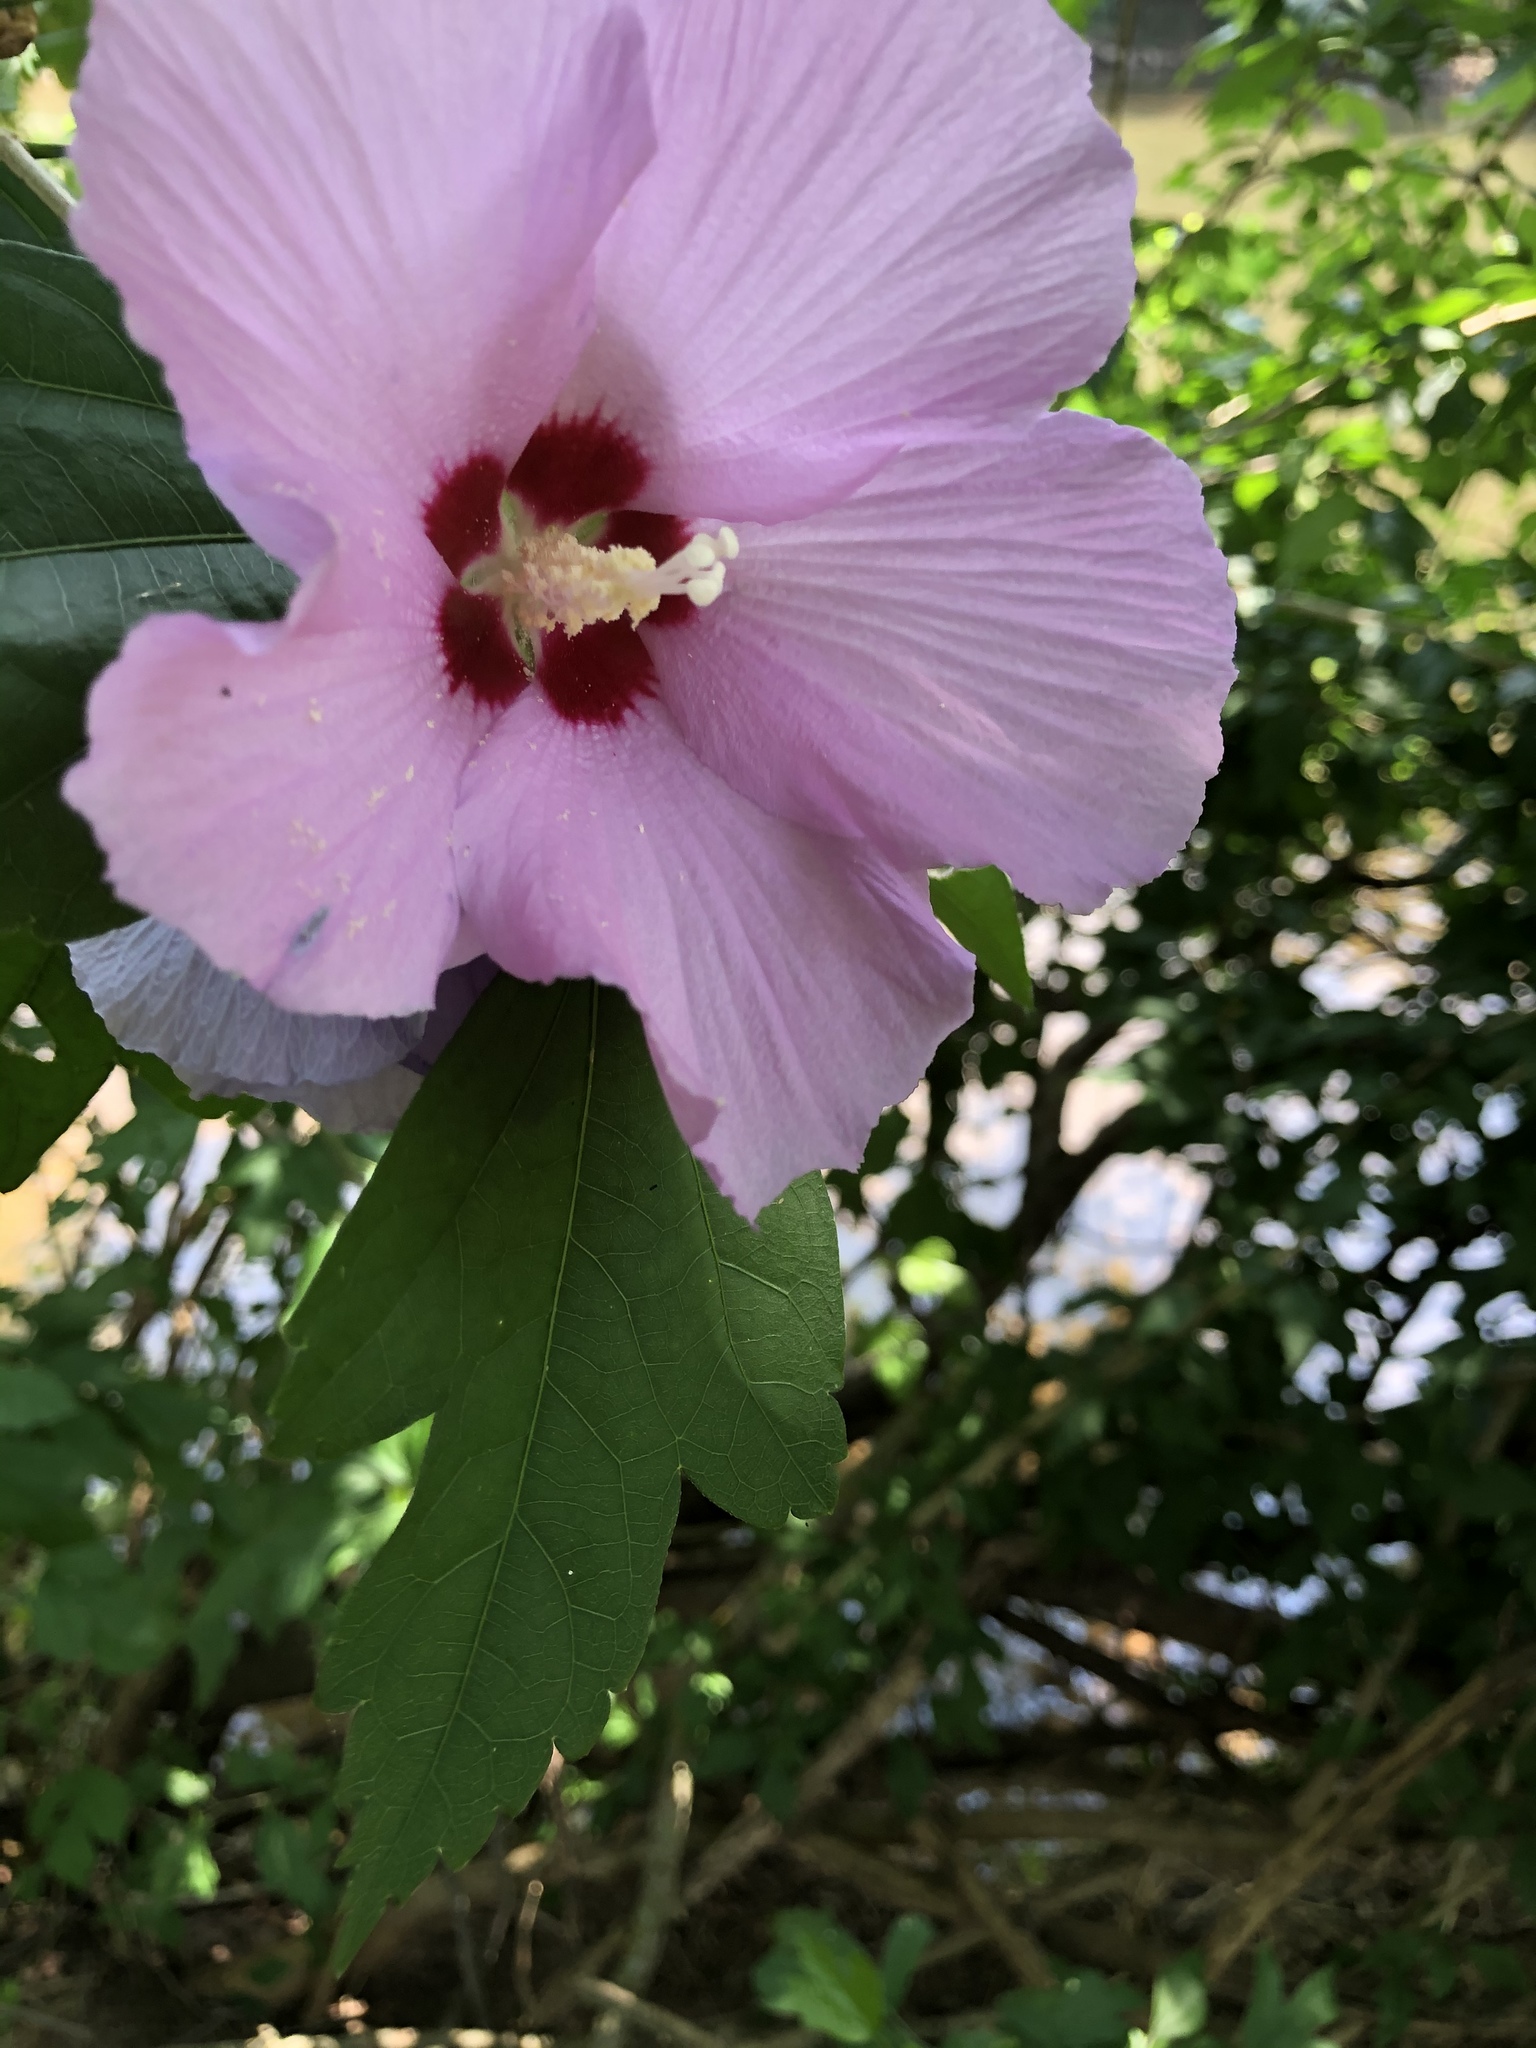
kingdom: Plantae
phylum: Tracheophyta
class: Magnoliopsida
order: Malvales
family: Malvaceae
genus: Hibiscus
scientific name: Hibiscus syriacus
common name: Syrian ketmia
